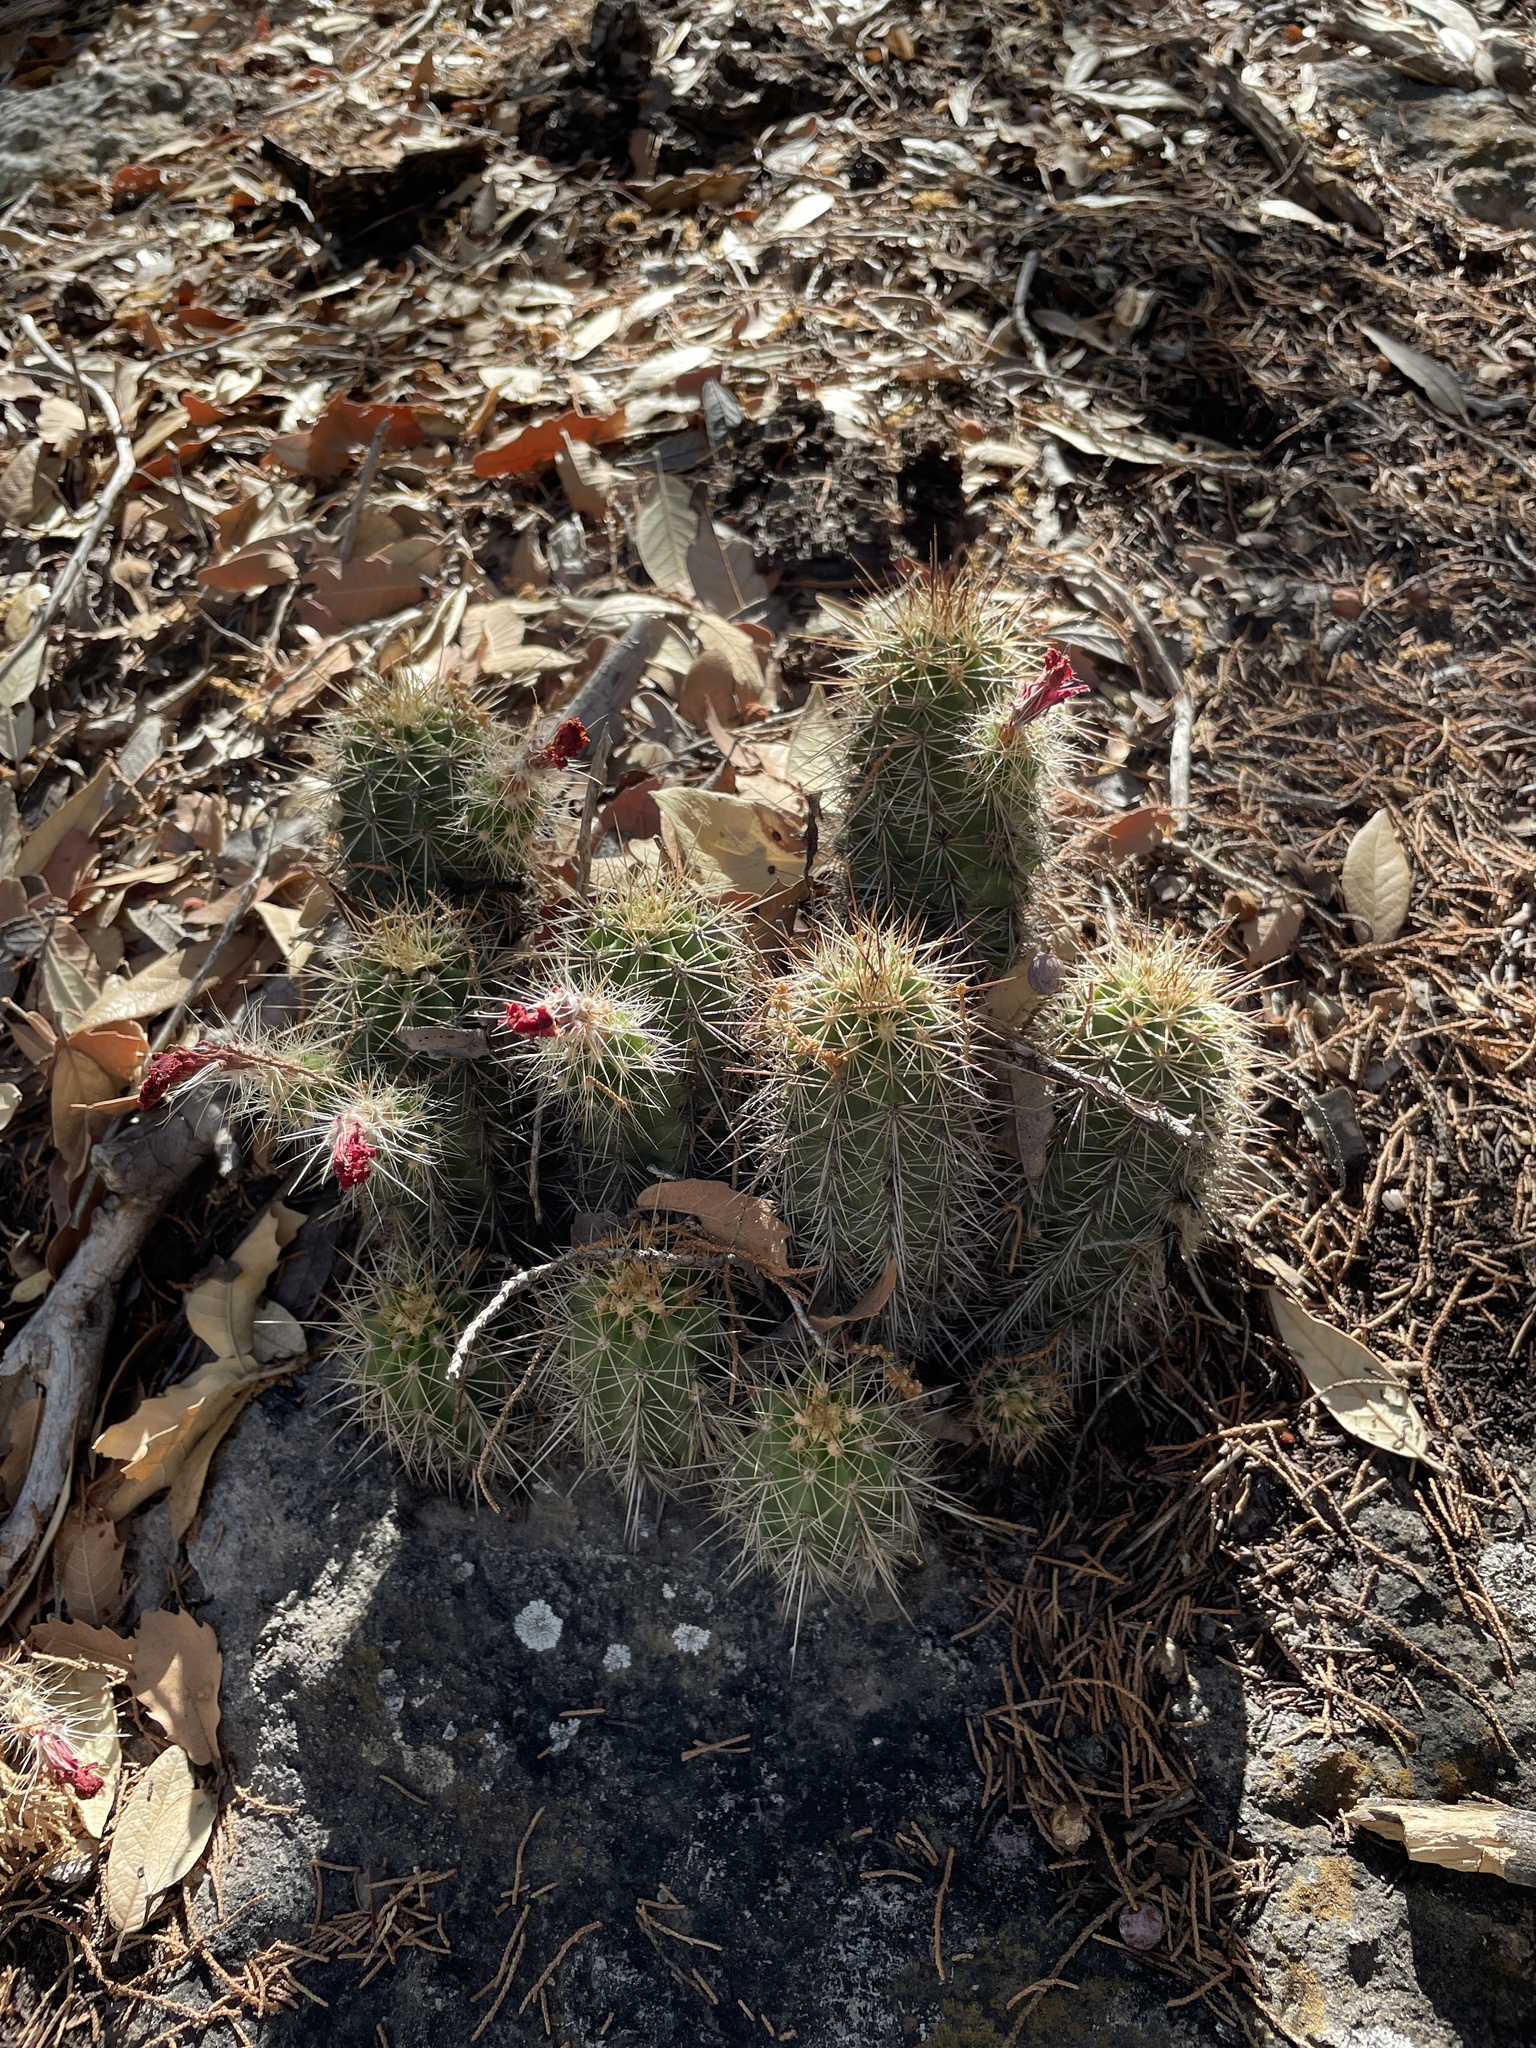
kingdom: Plantae
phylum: Tracheophyta
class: Magnoliopsida
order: Caryophyllales
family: Cactaceae
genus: Echinocereus
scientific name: Echinocereus coccineus
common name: Scarlet hedgehog cactus
